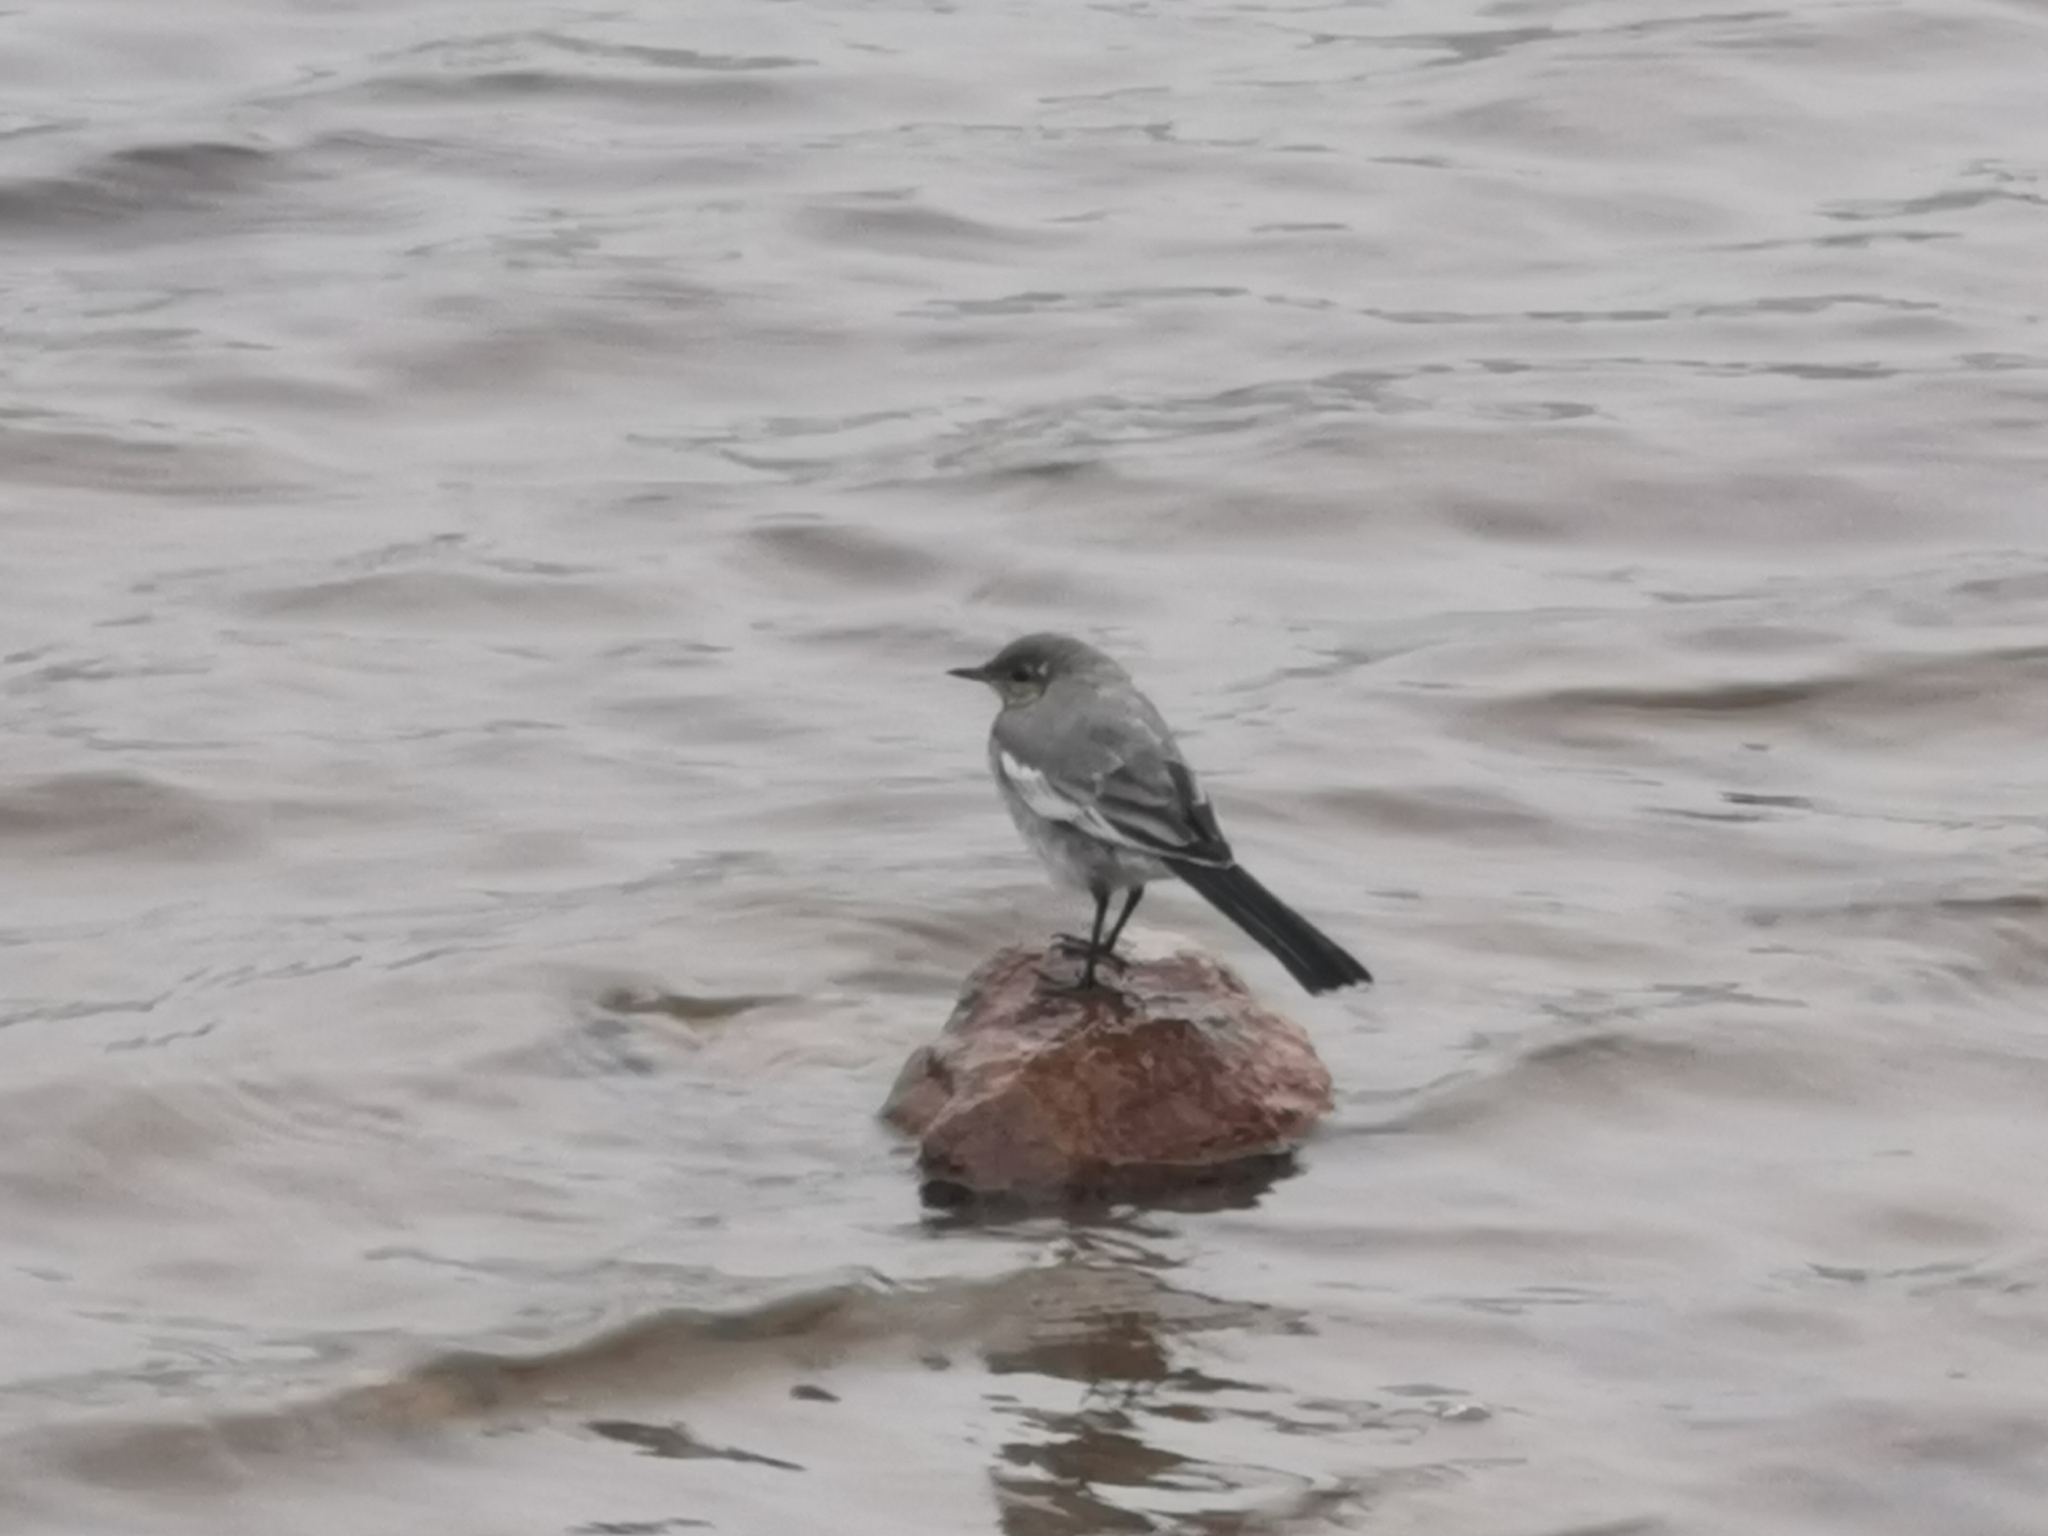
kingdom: Animalia
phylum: Chordata
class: Aves
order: Passeriformes
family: Motacillidae
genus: Motacilla
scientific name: Motacilla alba
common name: White wagtail
